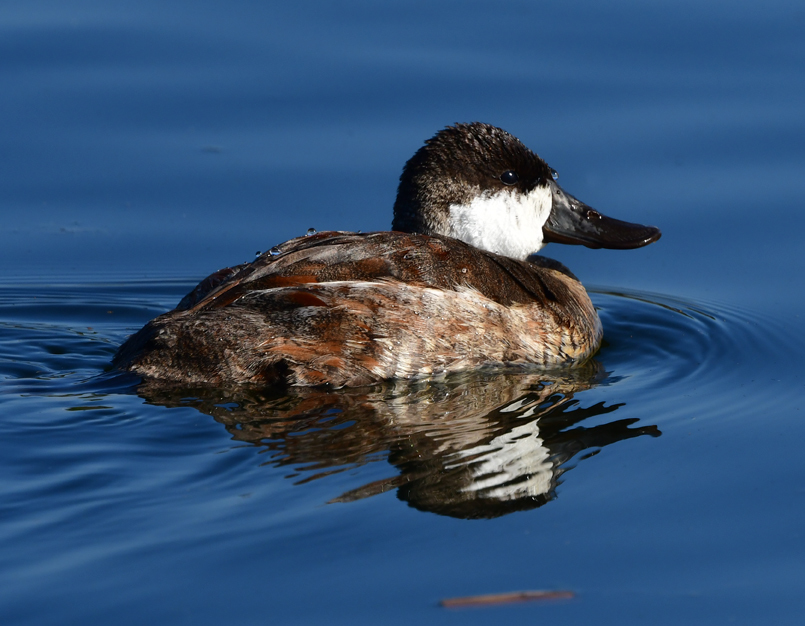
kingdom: Animalia
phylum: Chordata
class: Aves
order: Anseriformes
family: Anatidae
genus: Oxyura
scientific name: Oxyura jamaicensis
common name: Ruddy duck
